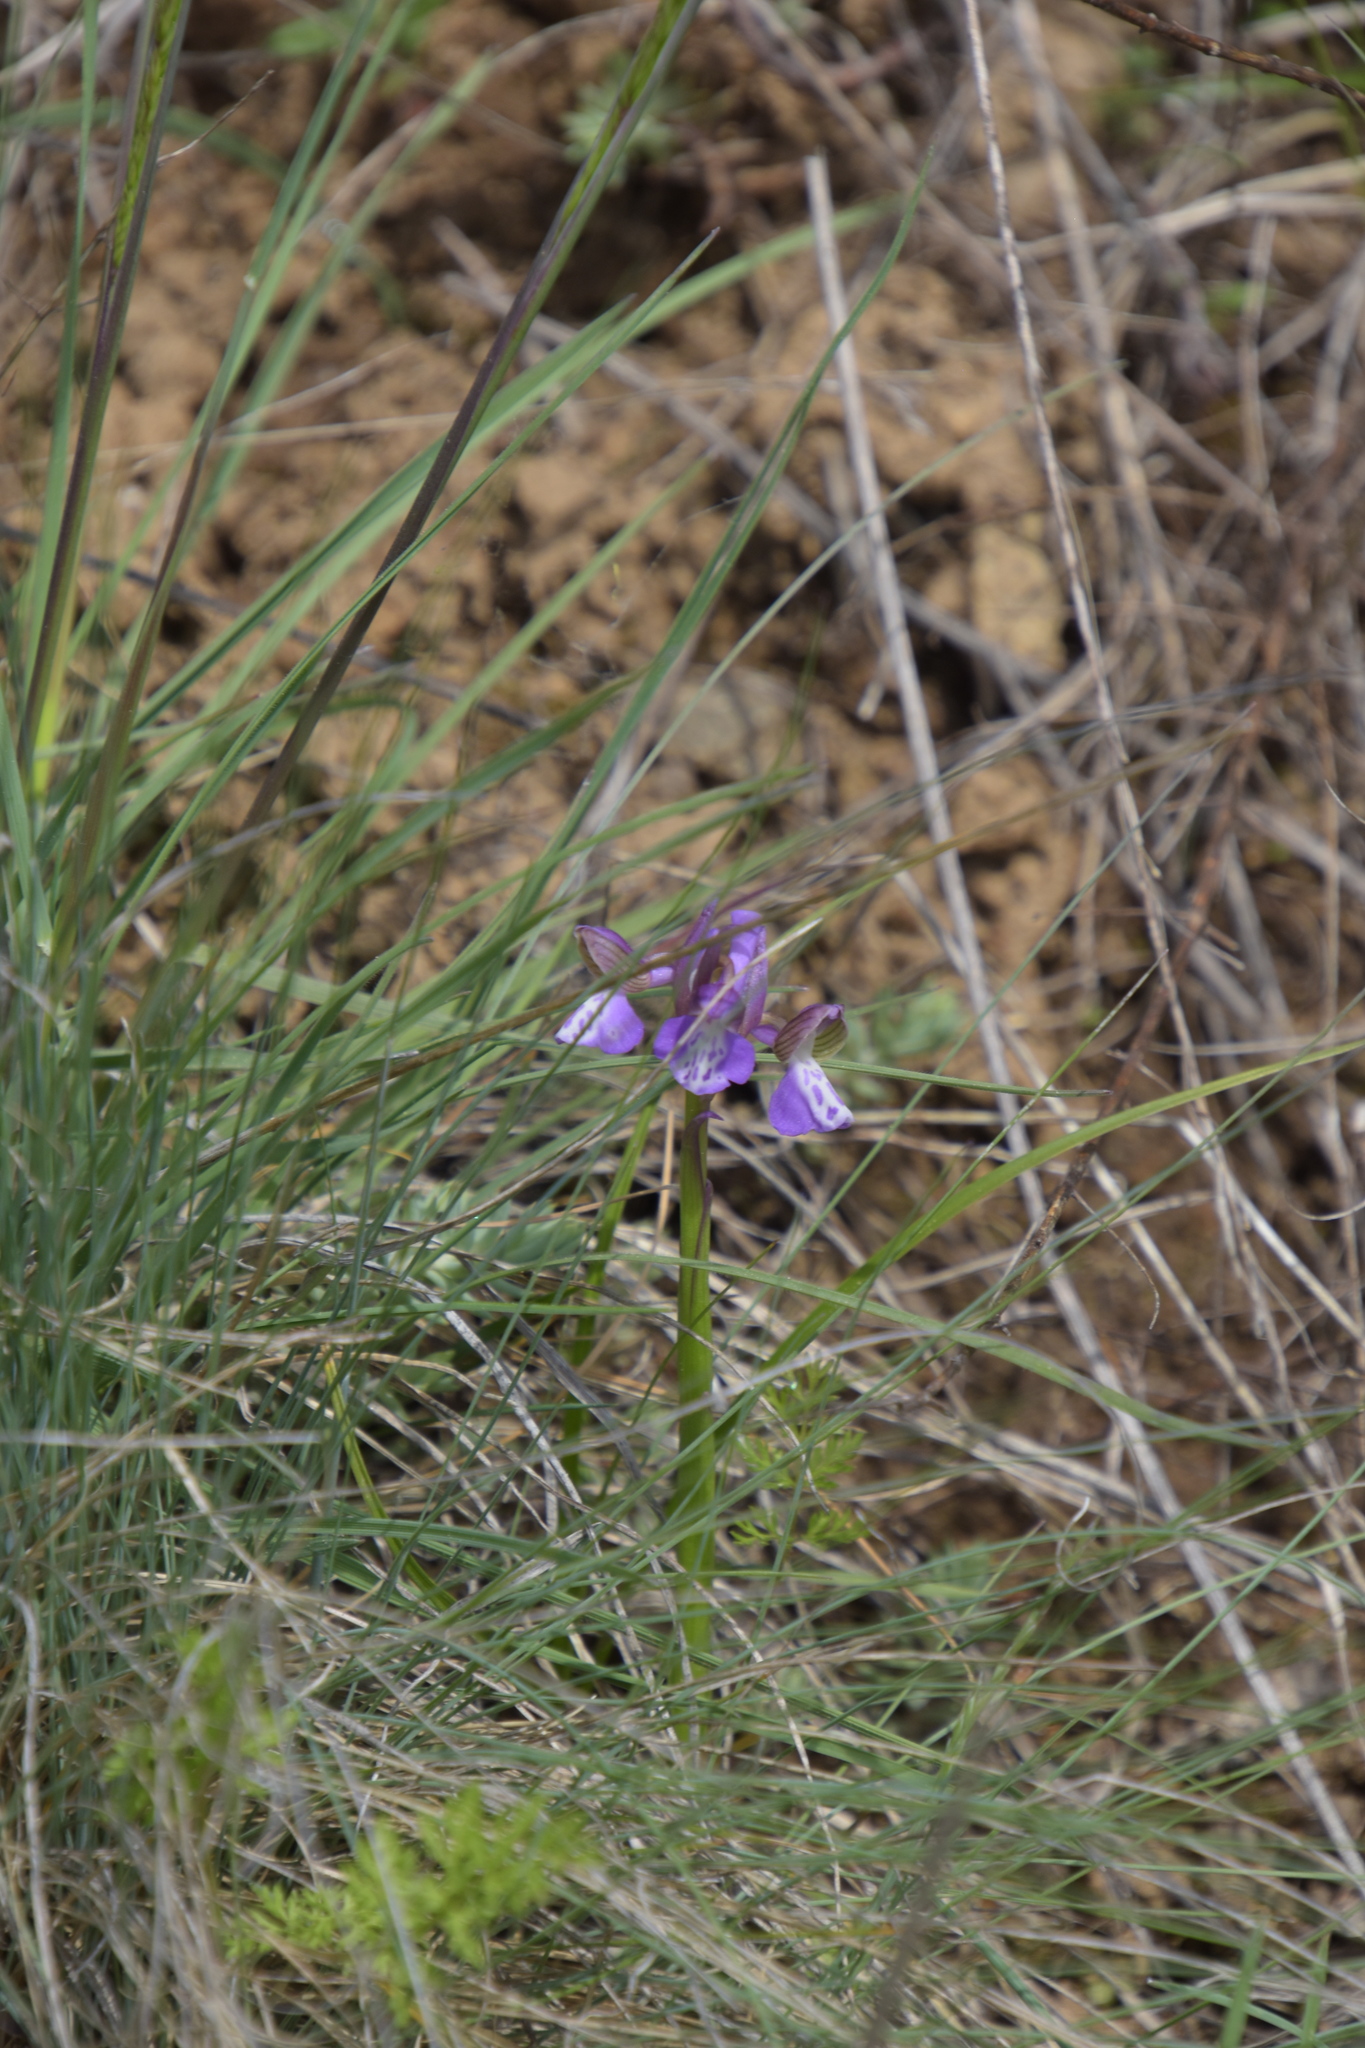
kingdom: Plantae
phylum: Tracheophyta
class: Liliopsida
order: Asparagales
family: Orchidaceae
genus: Anacamptis
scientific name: Anacamptis morio
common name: Green-winged orchid
